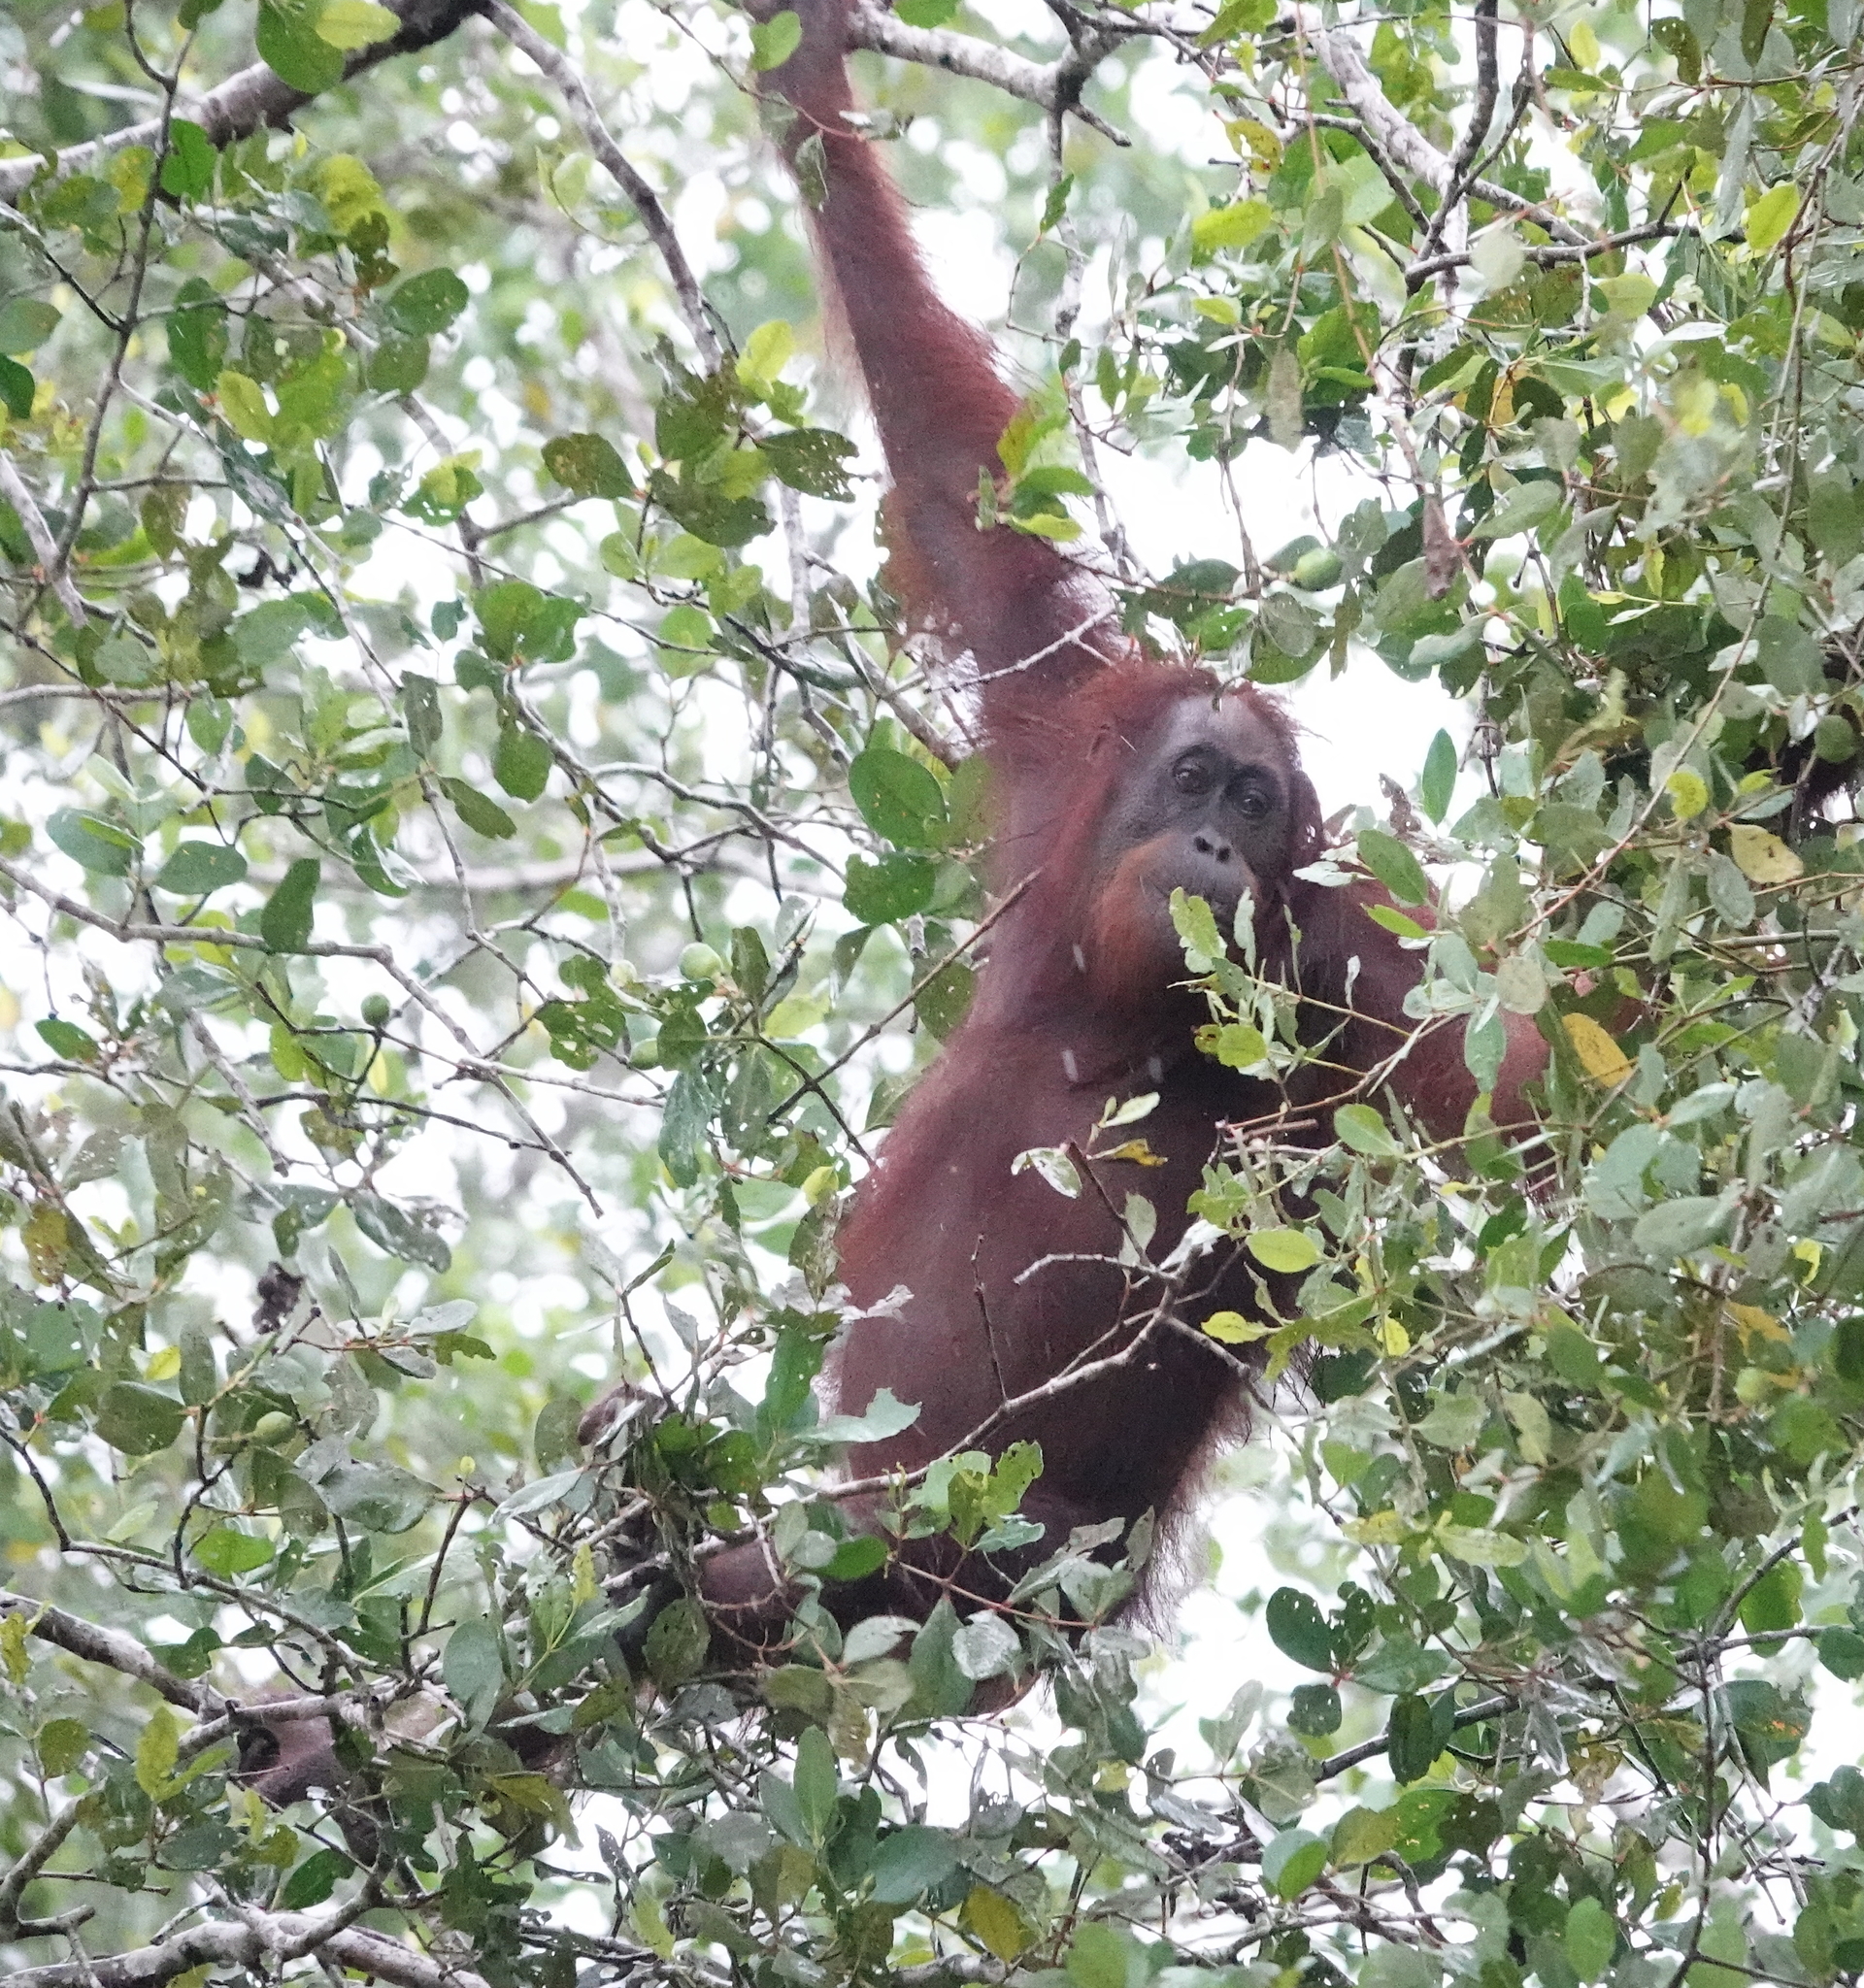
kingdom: Animalia
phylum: Chordata
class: Mammalia
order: Primates
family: Hominidae
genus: Pongo
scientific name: Pongo pygmaeus
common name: Bornean orangutan
